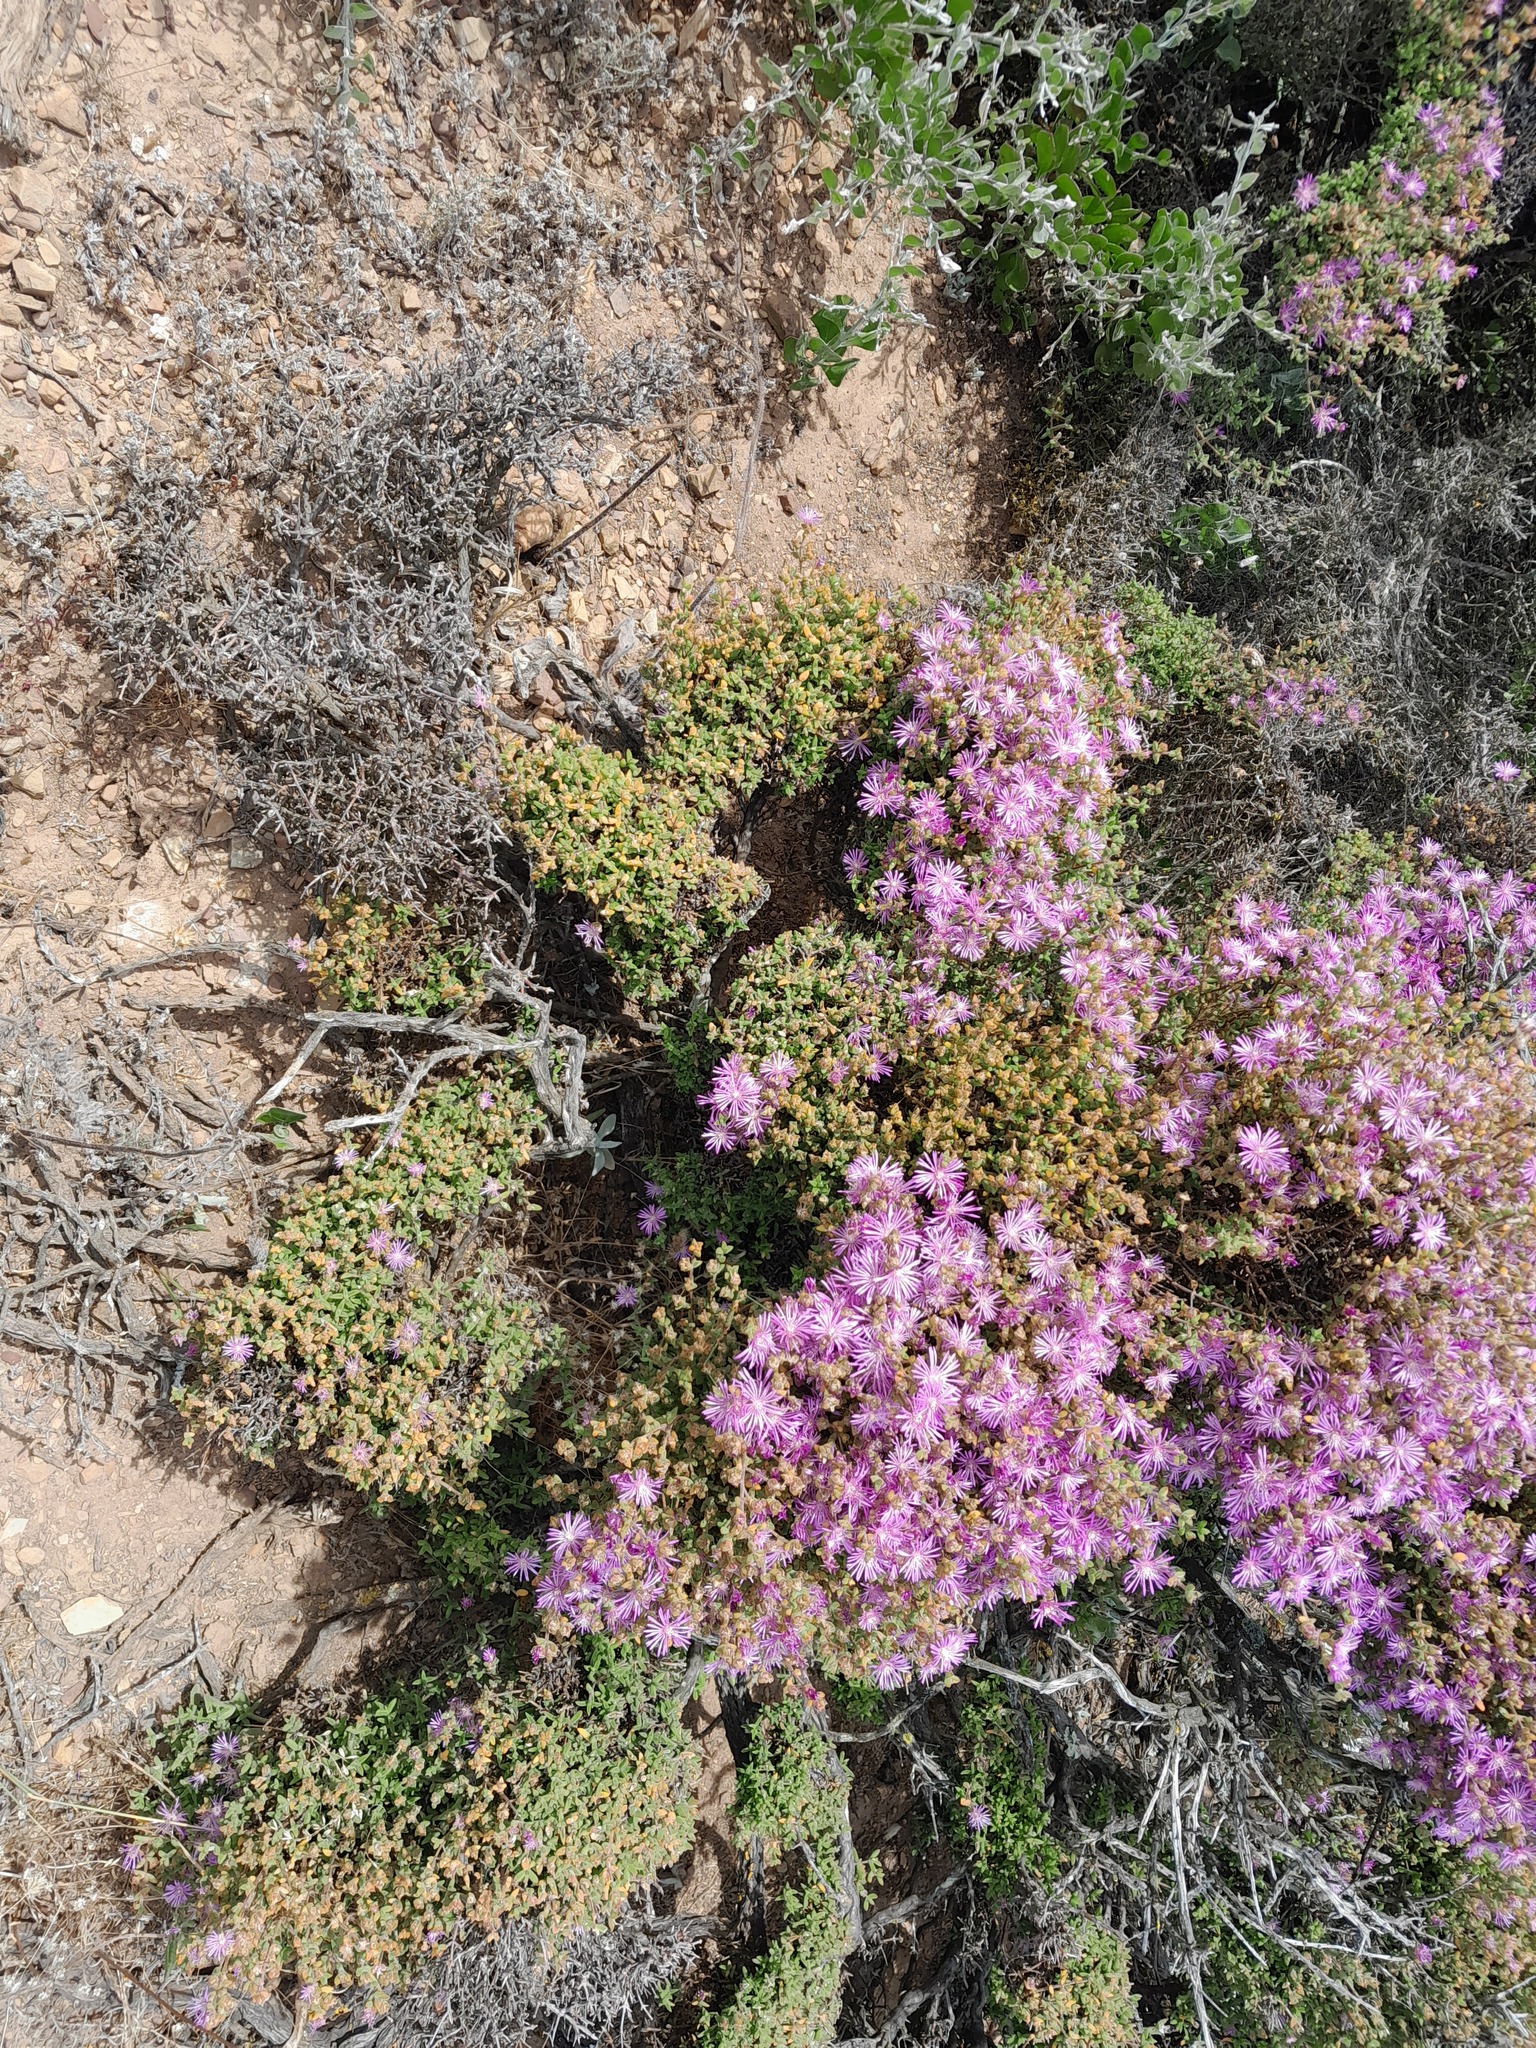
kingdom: Plantae
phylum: Tracheophyta
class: Magnoliopsida
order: Caryophyllales
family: Aizoaceae
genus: Drosanthemum
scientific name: Drosanthemum parvifolium
